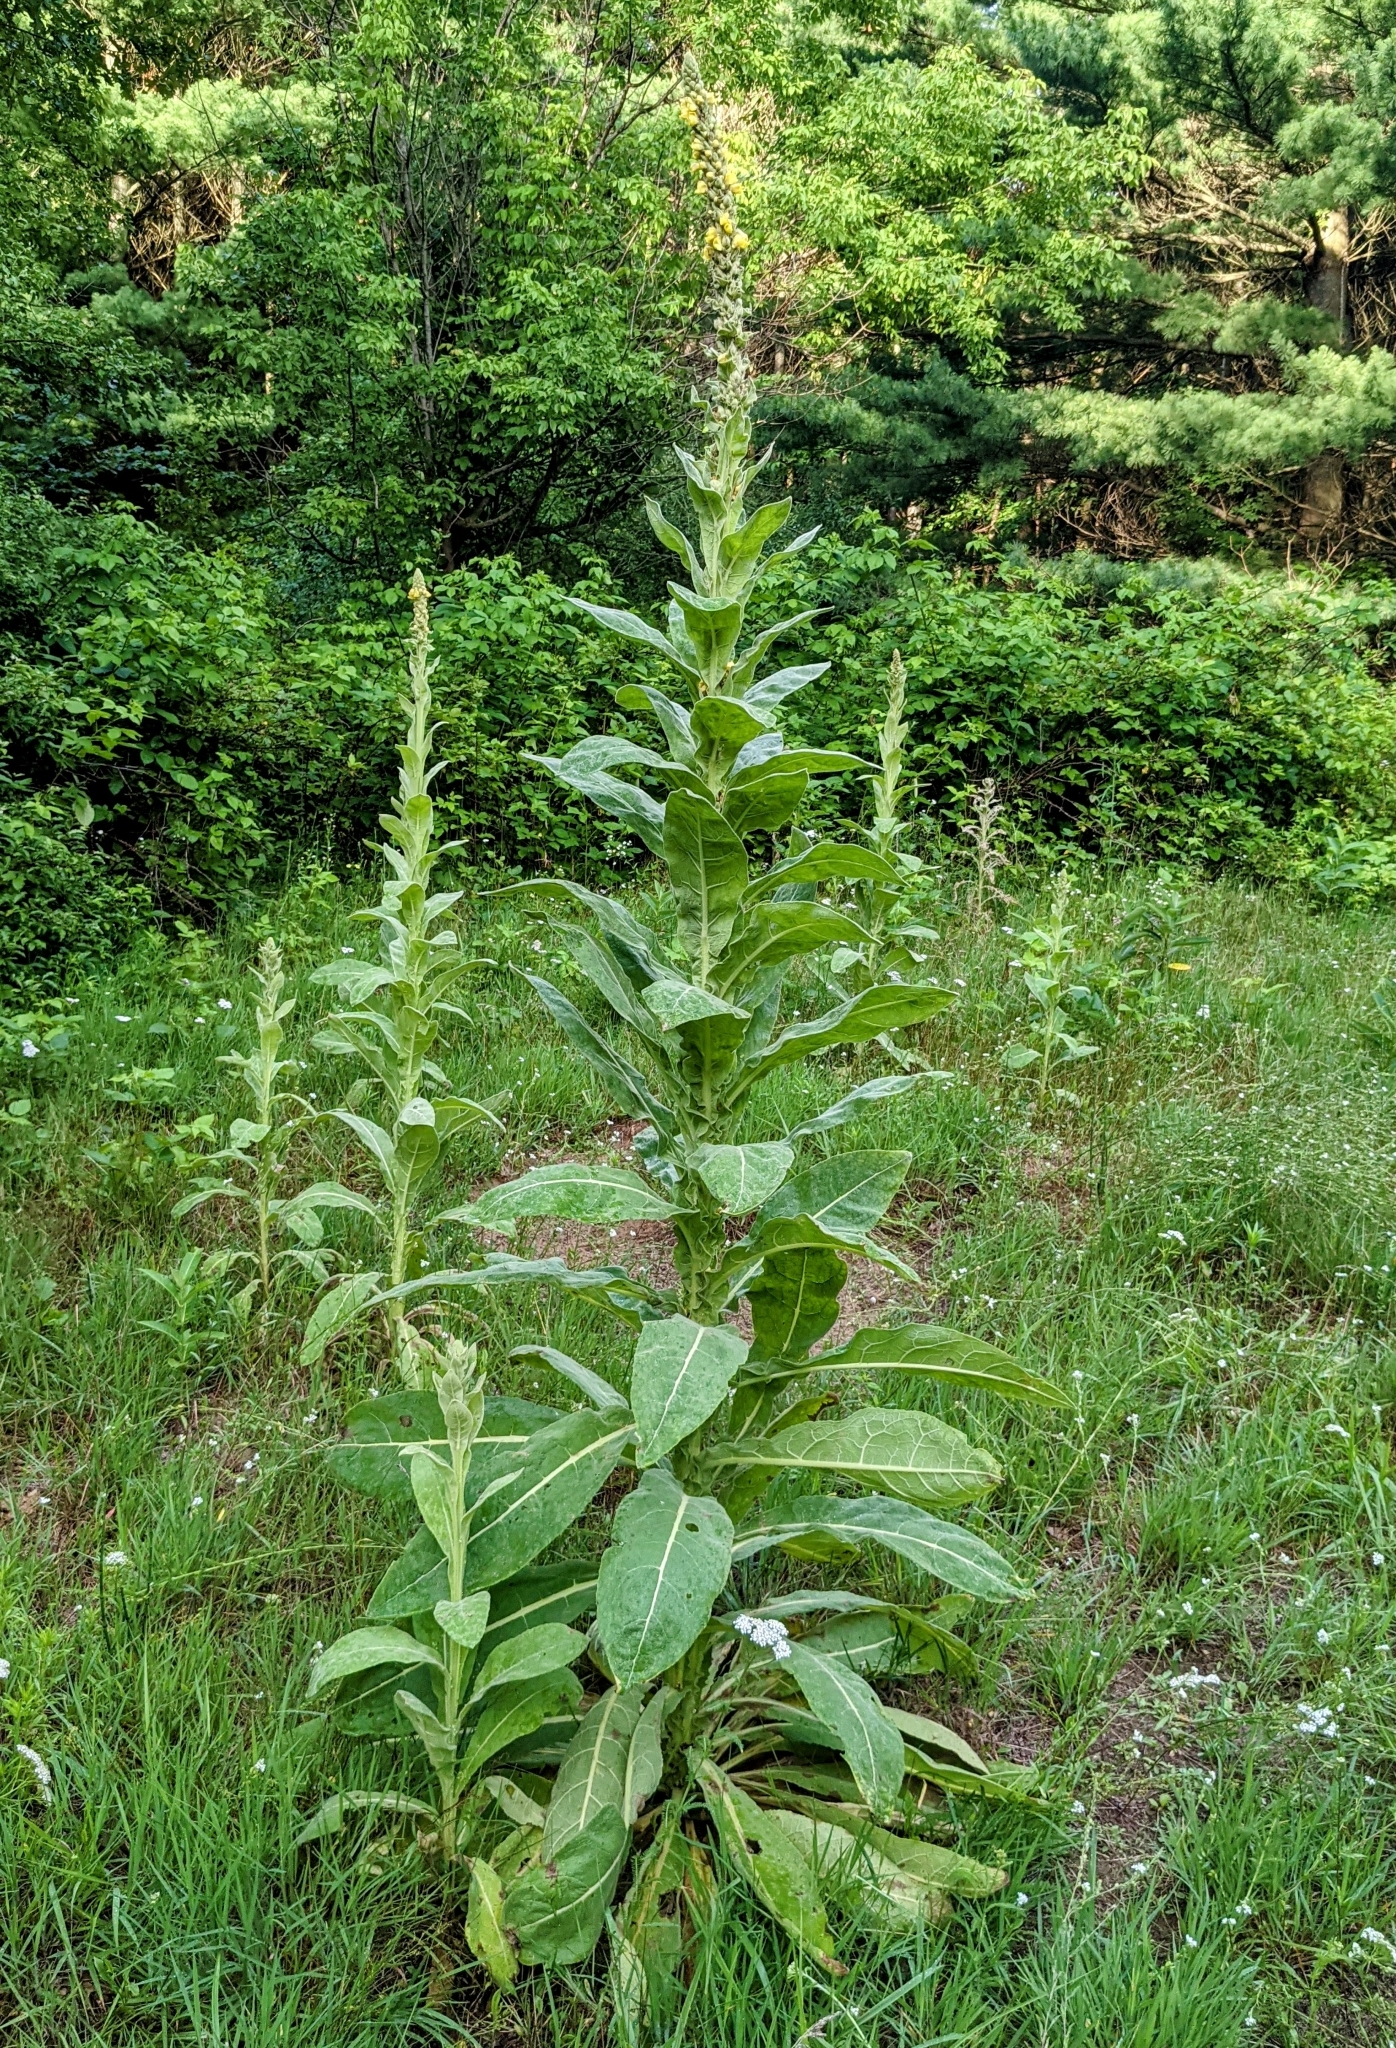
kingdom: Plantae
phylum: Tracheophyta
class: Magnoliopsida
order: Lamiales
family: Scrophulariaceae
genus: Verbascum
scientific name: Verbascum thapsus
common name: Common mullein
